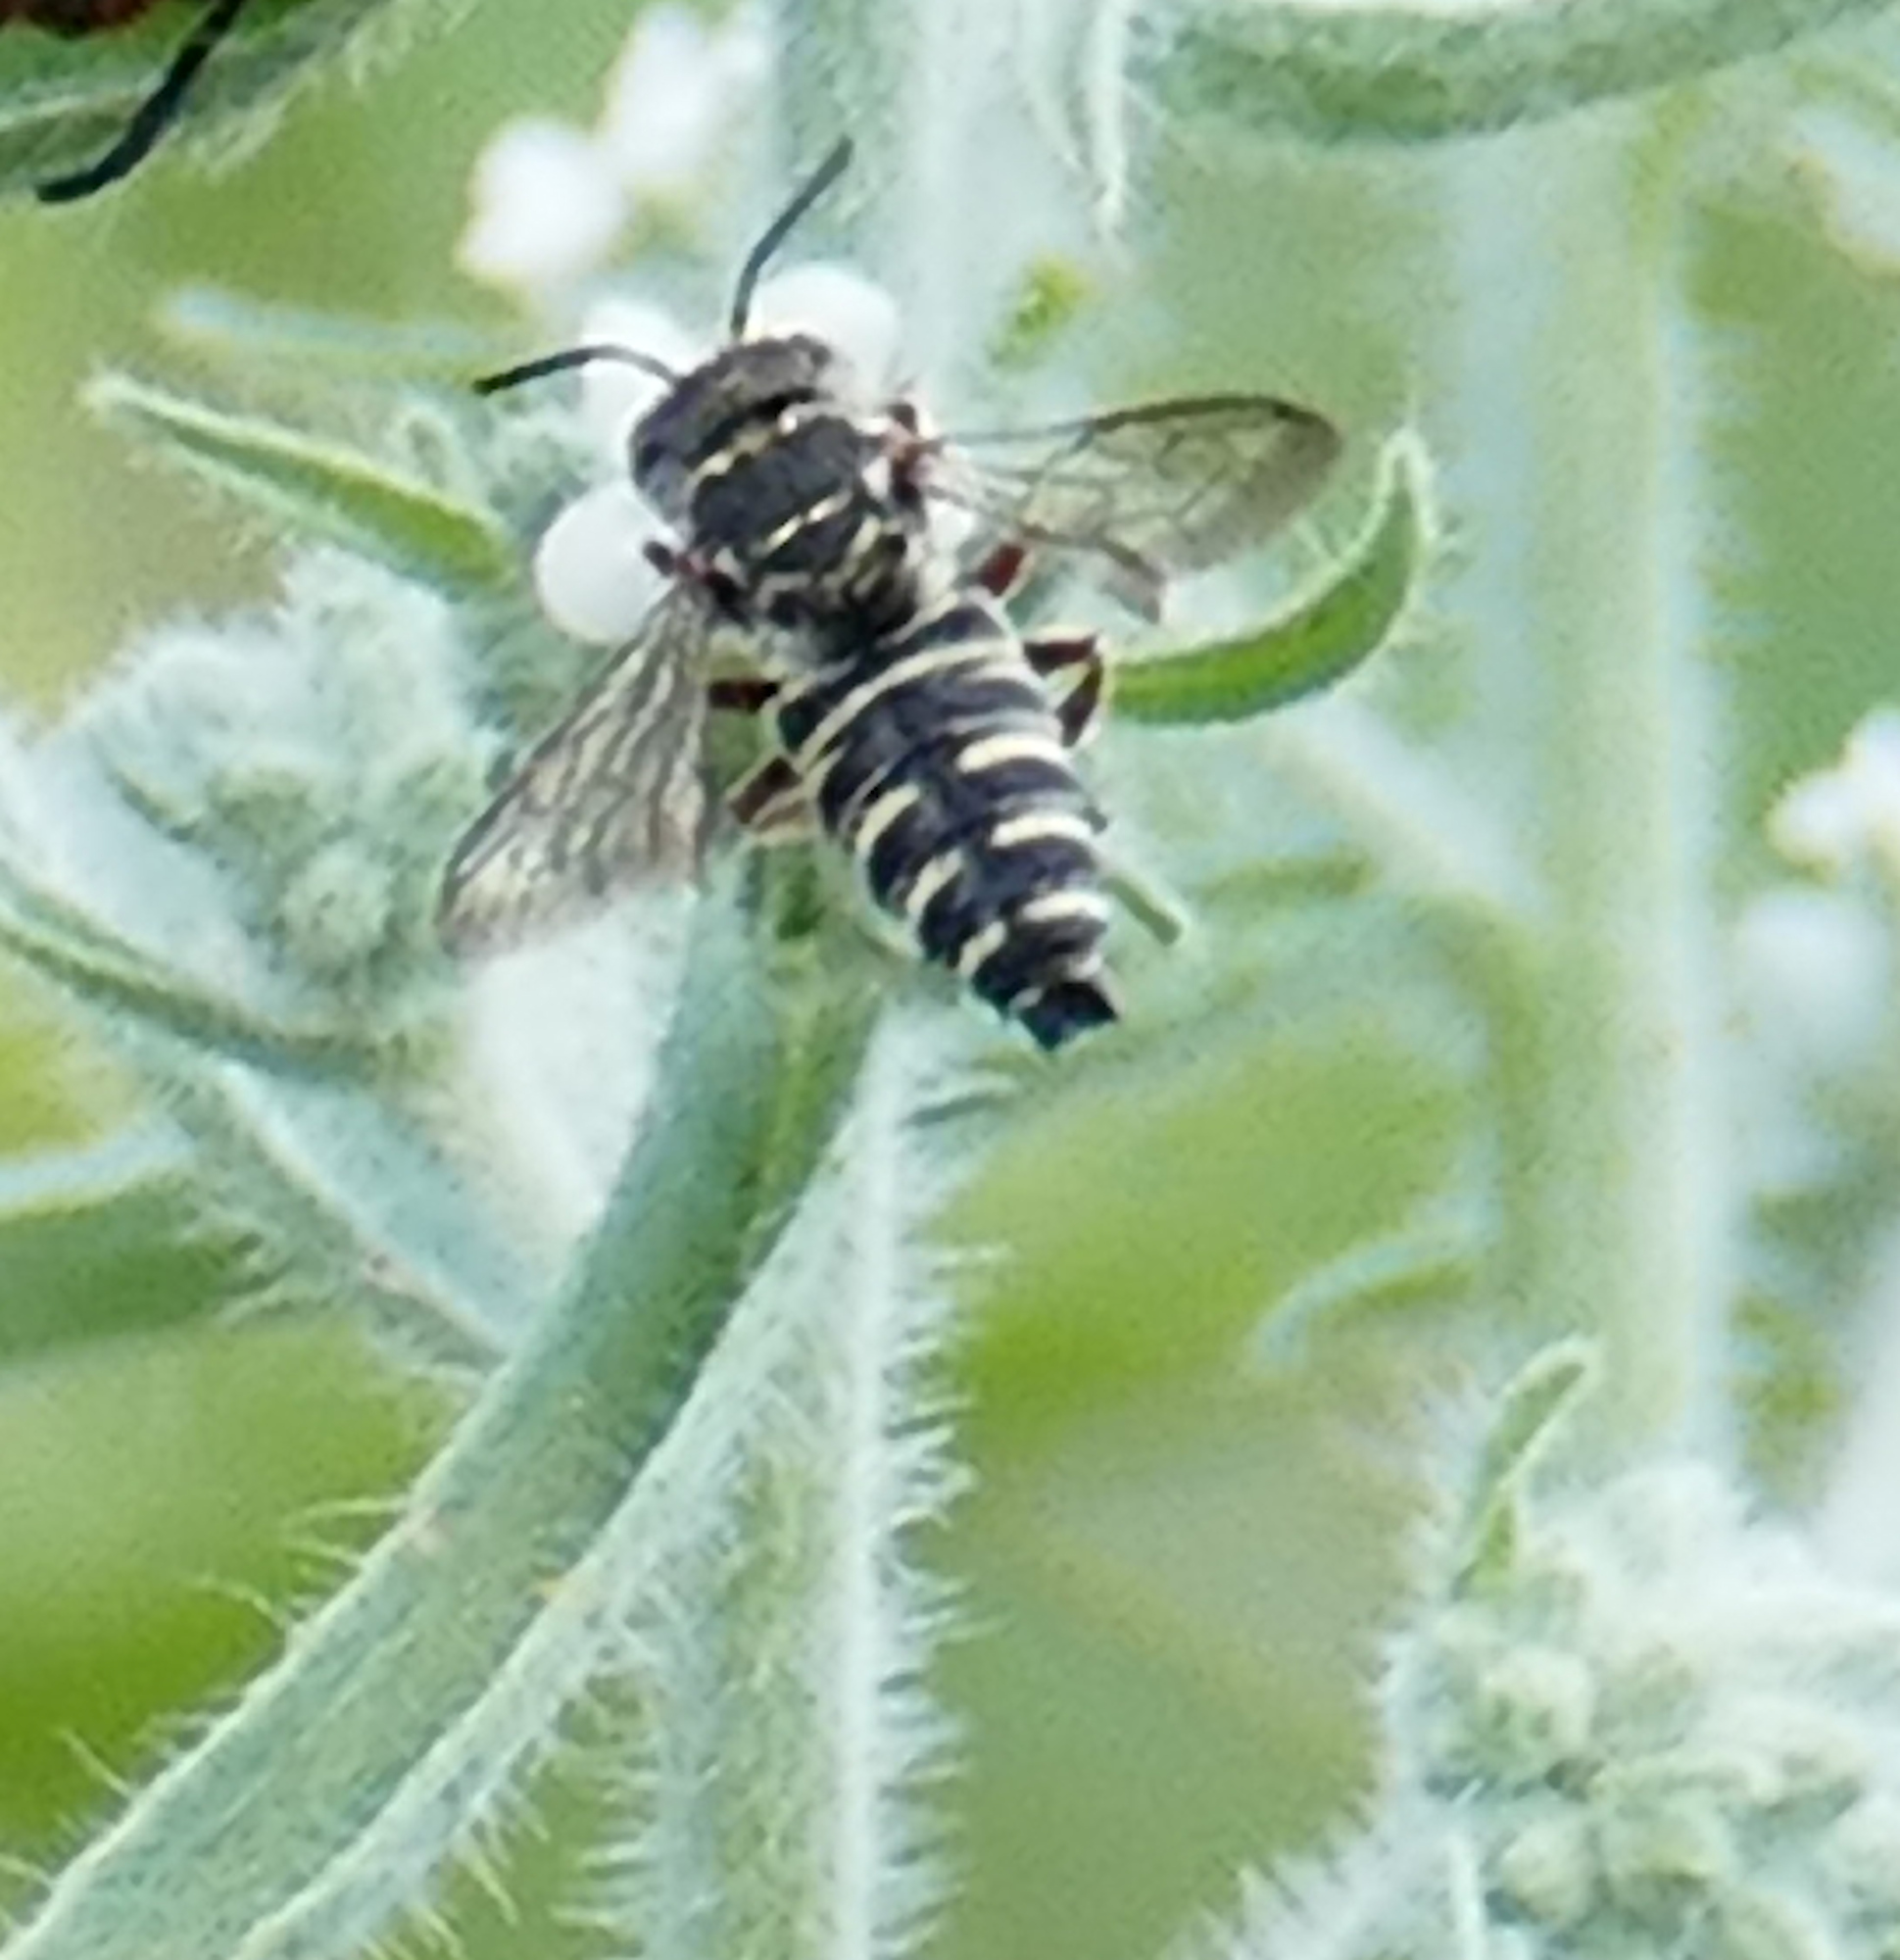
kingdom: Animalia
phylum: Arthropoda
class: Insecta
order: Hymenoptera
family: Megachilidae
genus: Synocoelioxys
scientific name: Synocoelioxys
